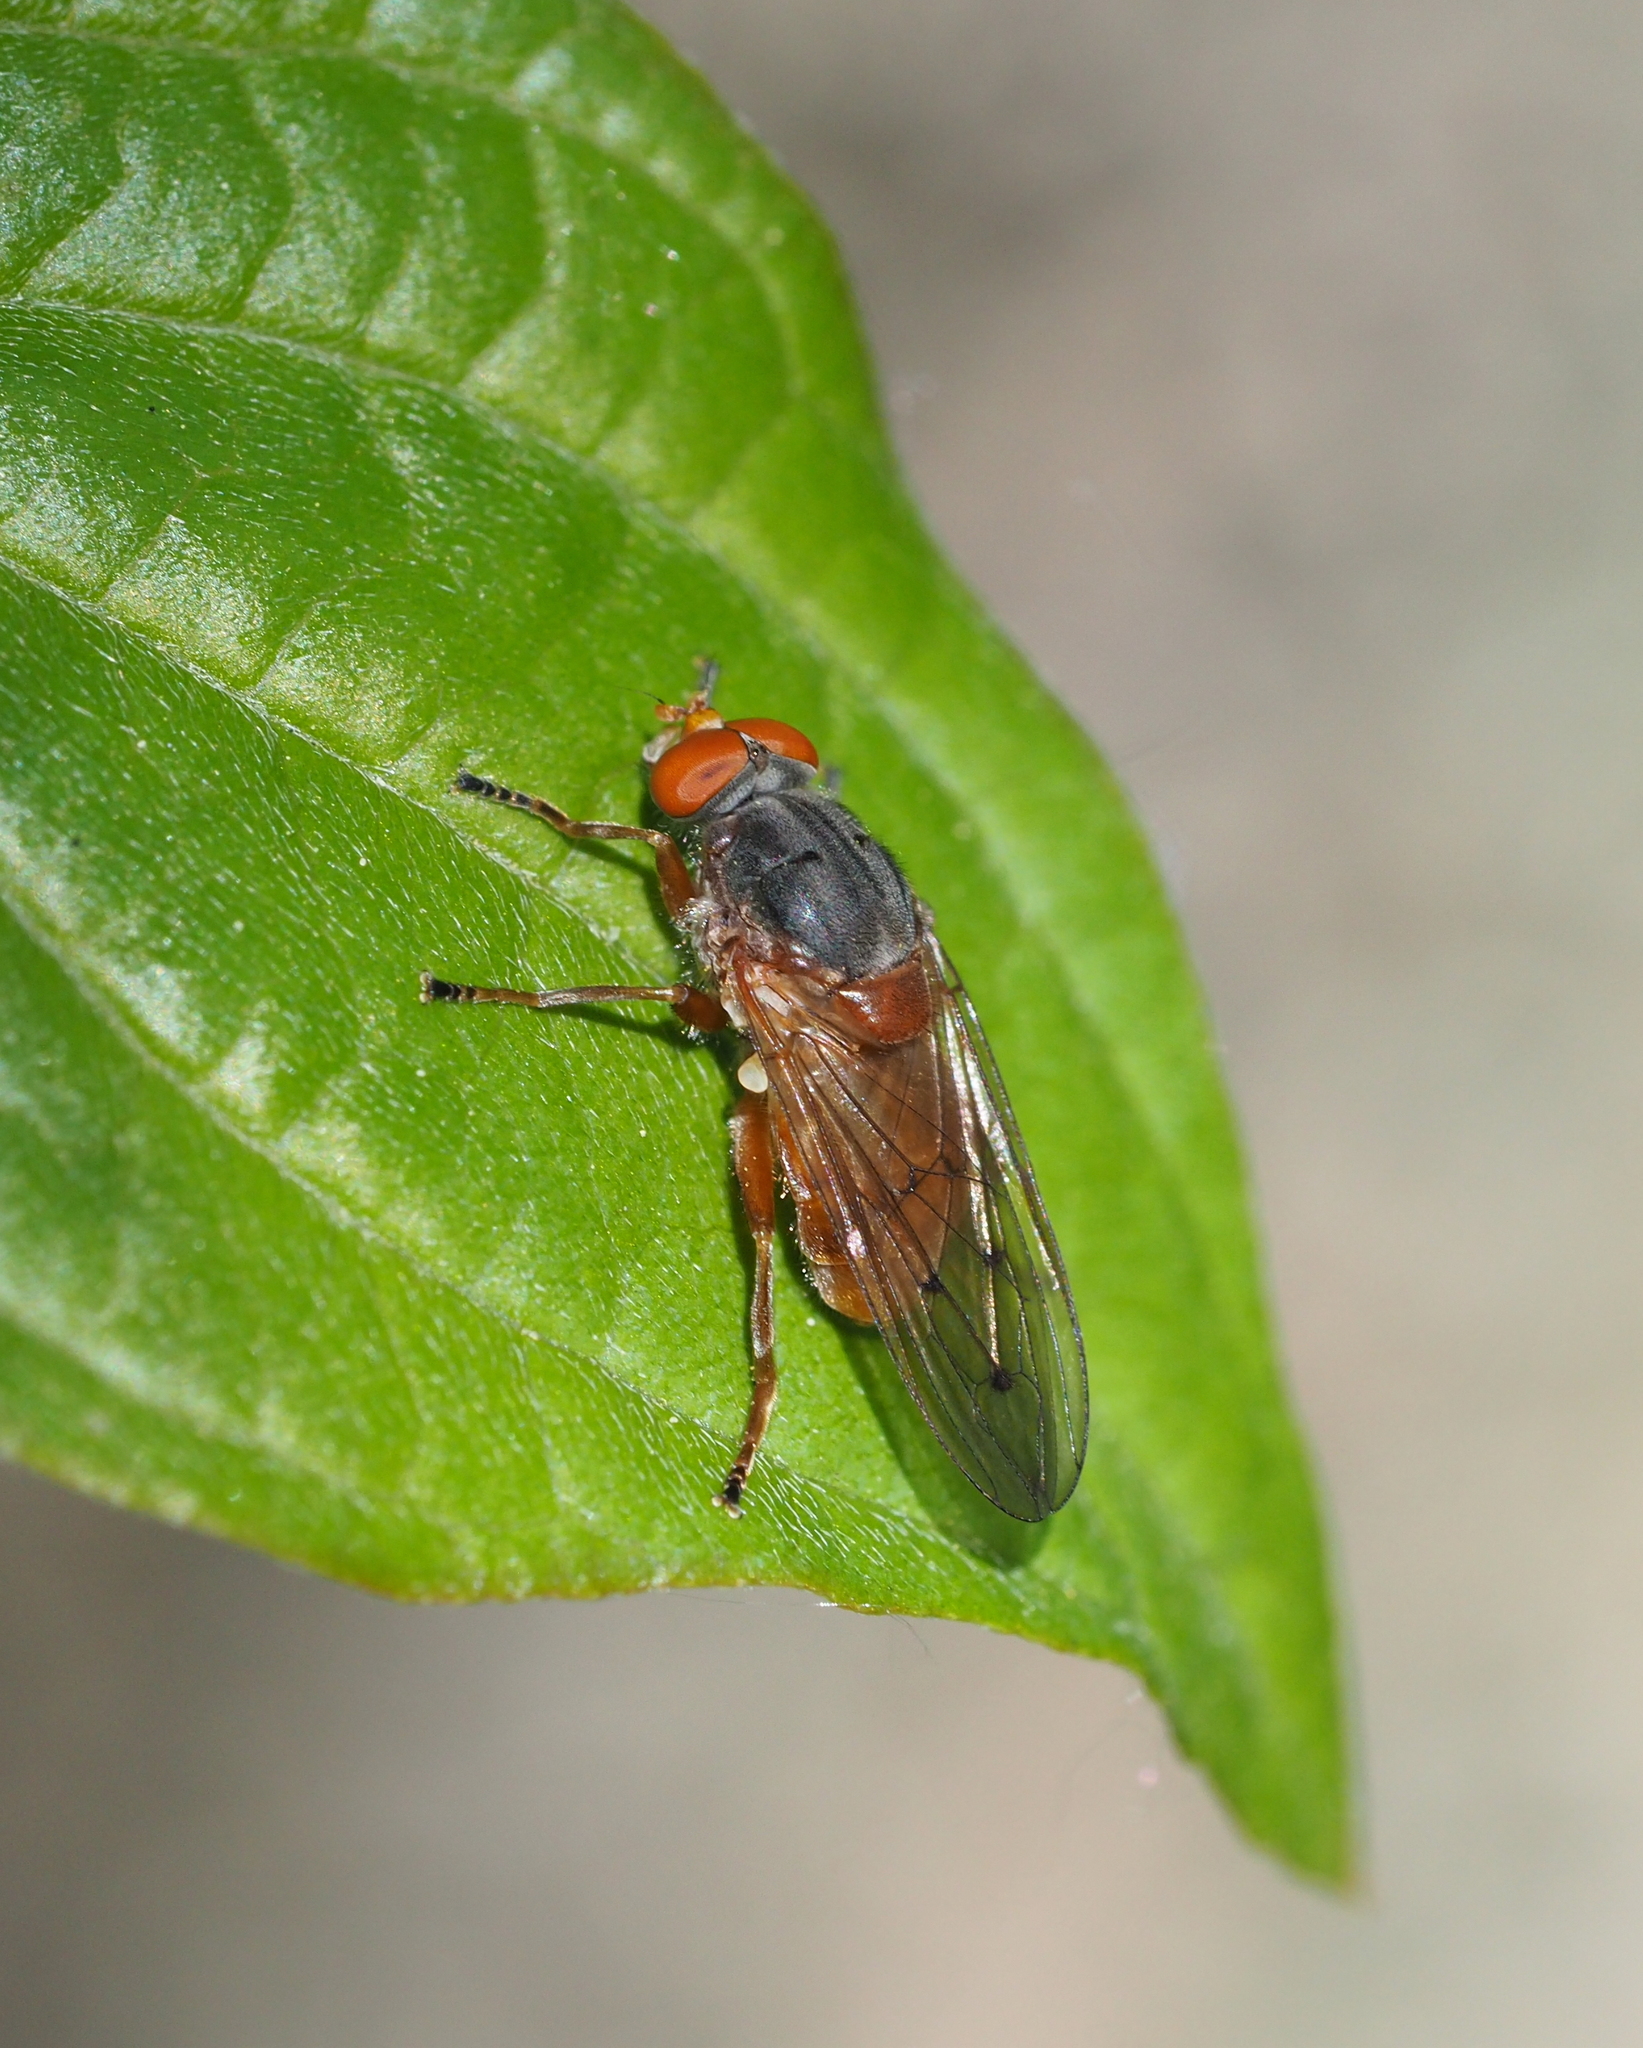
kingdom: Animalia
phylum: Arthropoda
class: Insecta
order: Diptera
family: Syrphidae
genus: Brachyopa
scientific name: Brachyopa maculipennis
